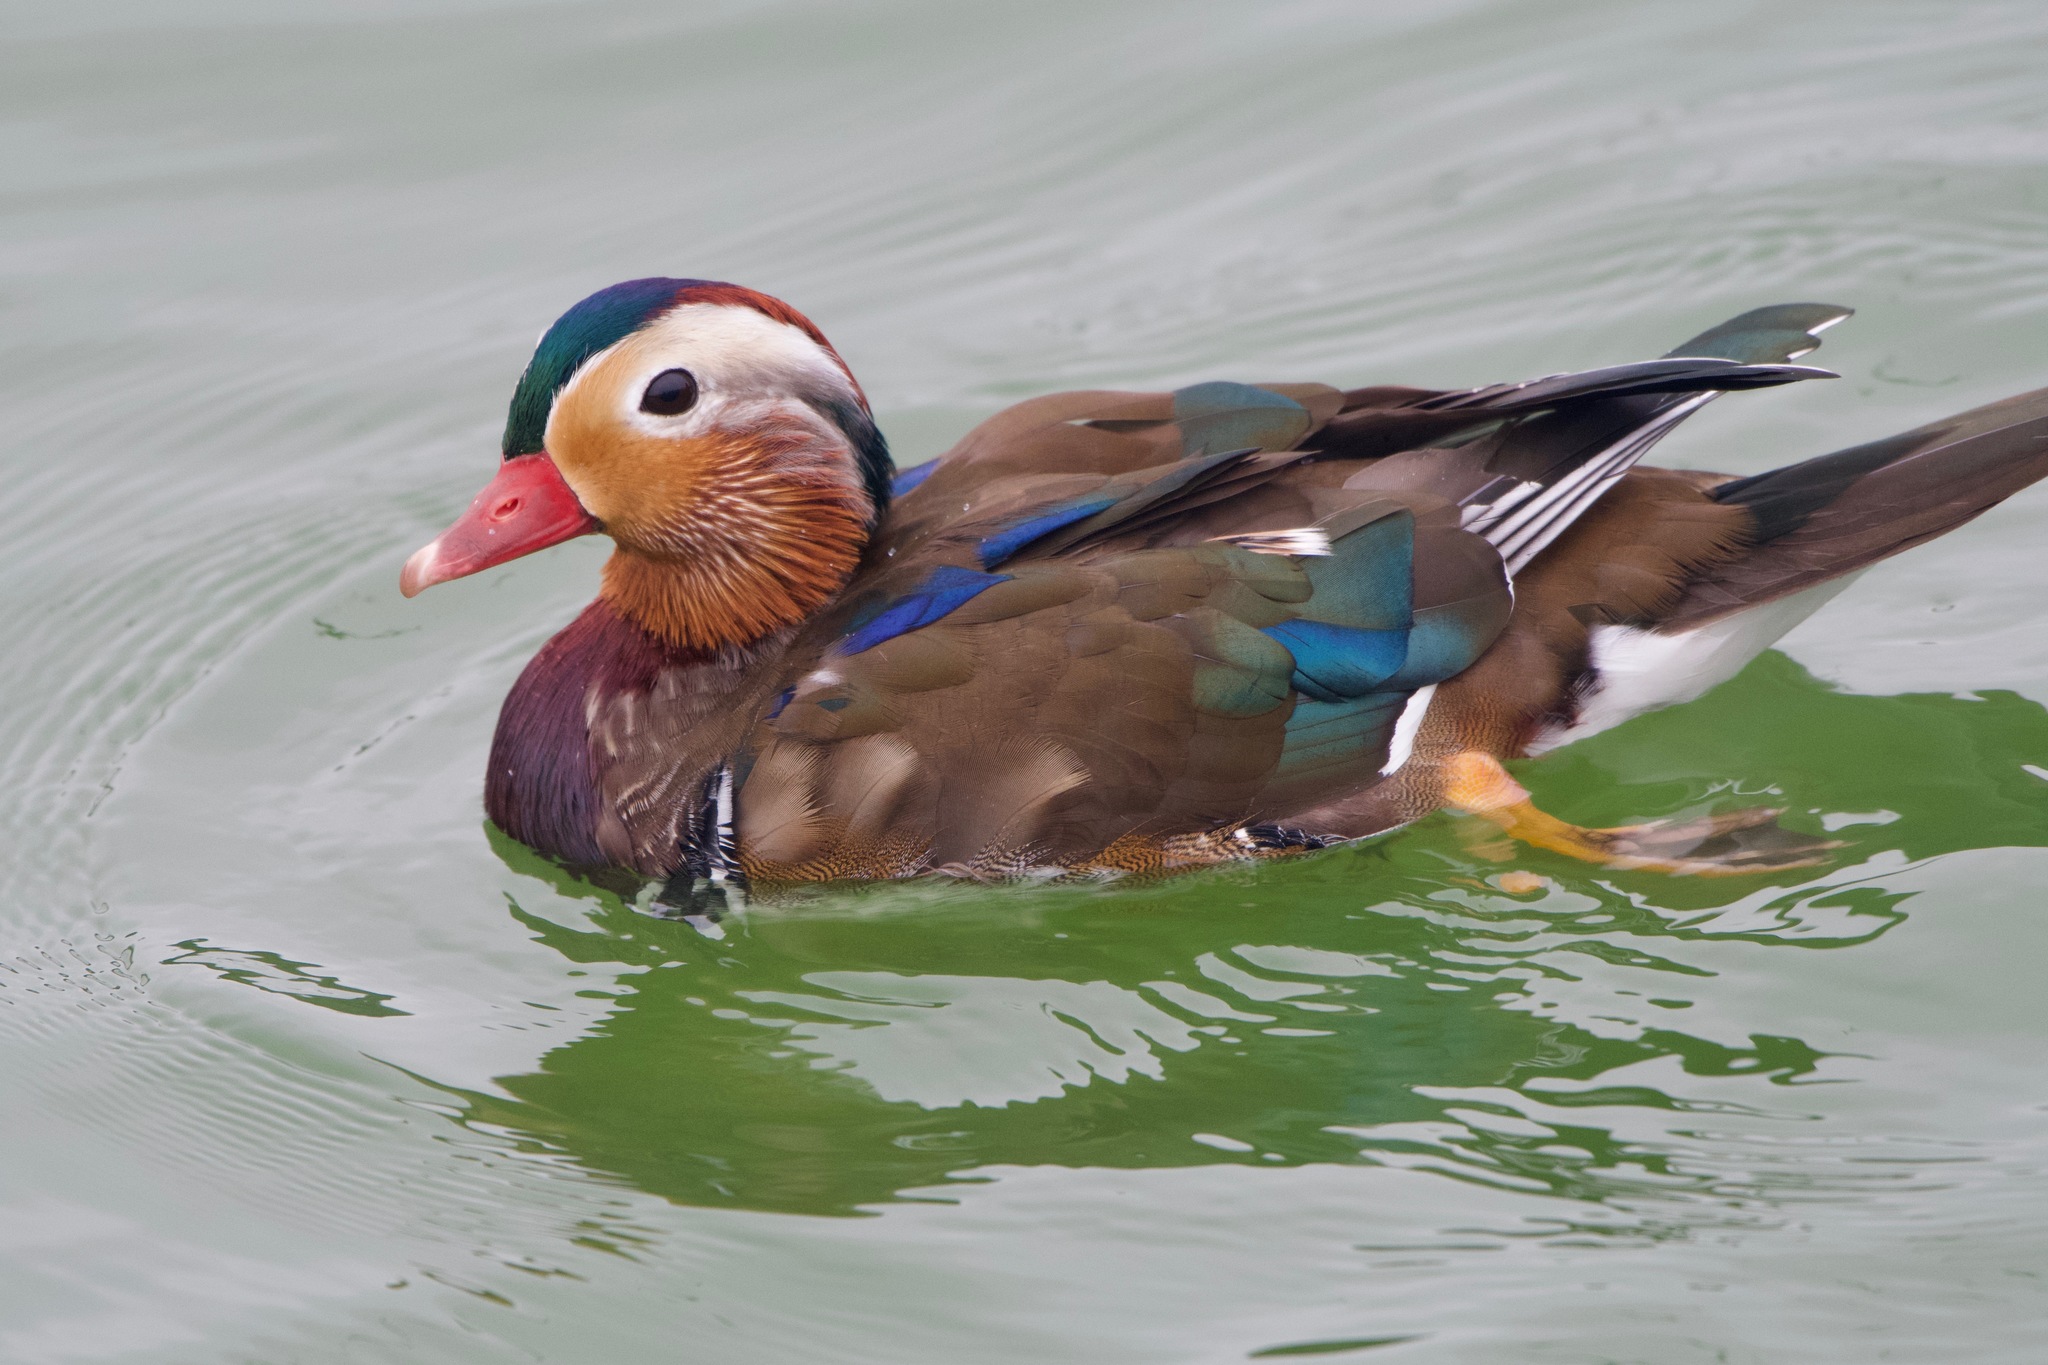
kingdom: Animalia
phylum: Chordata
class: Aves
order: Anseriformes
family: Anatidae
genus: Aix
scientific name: Aix galericulata
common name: Mandarin duck
